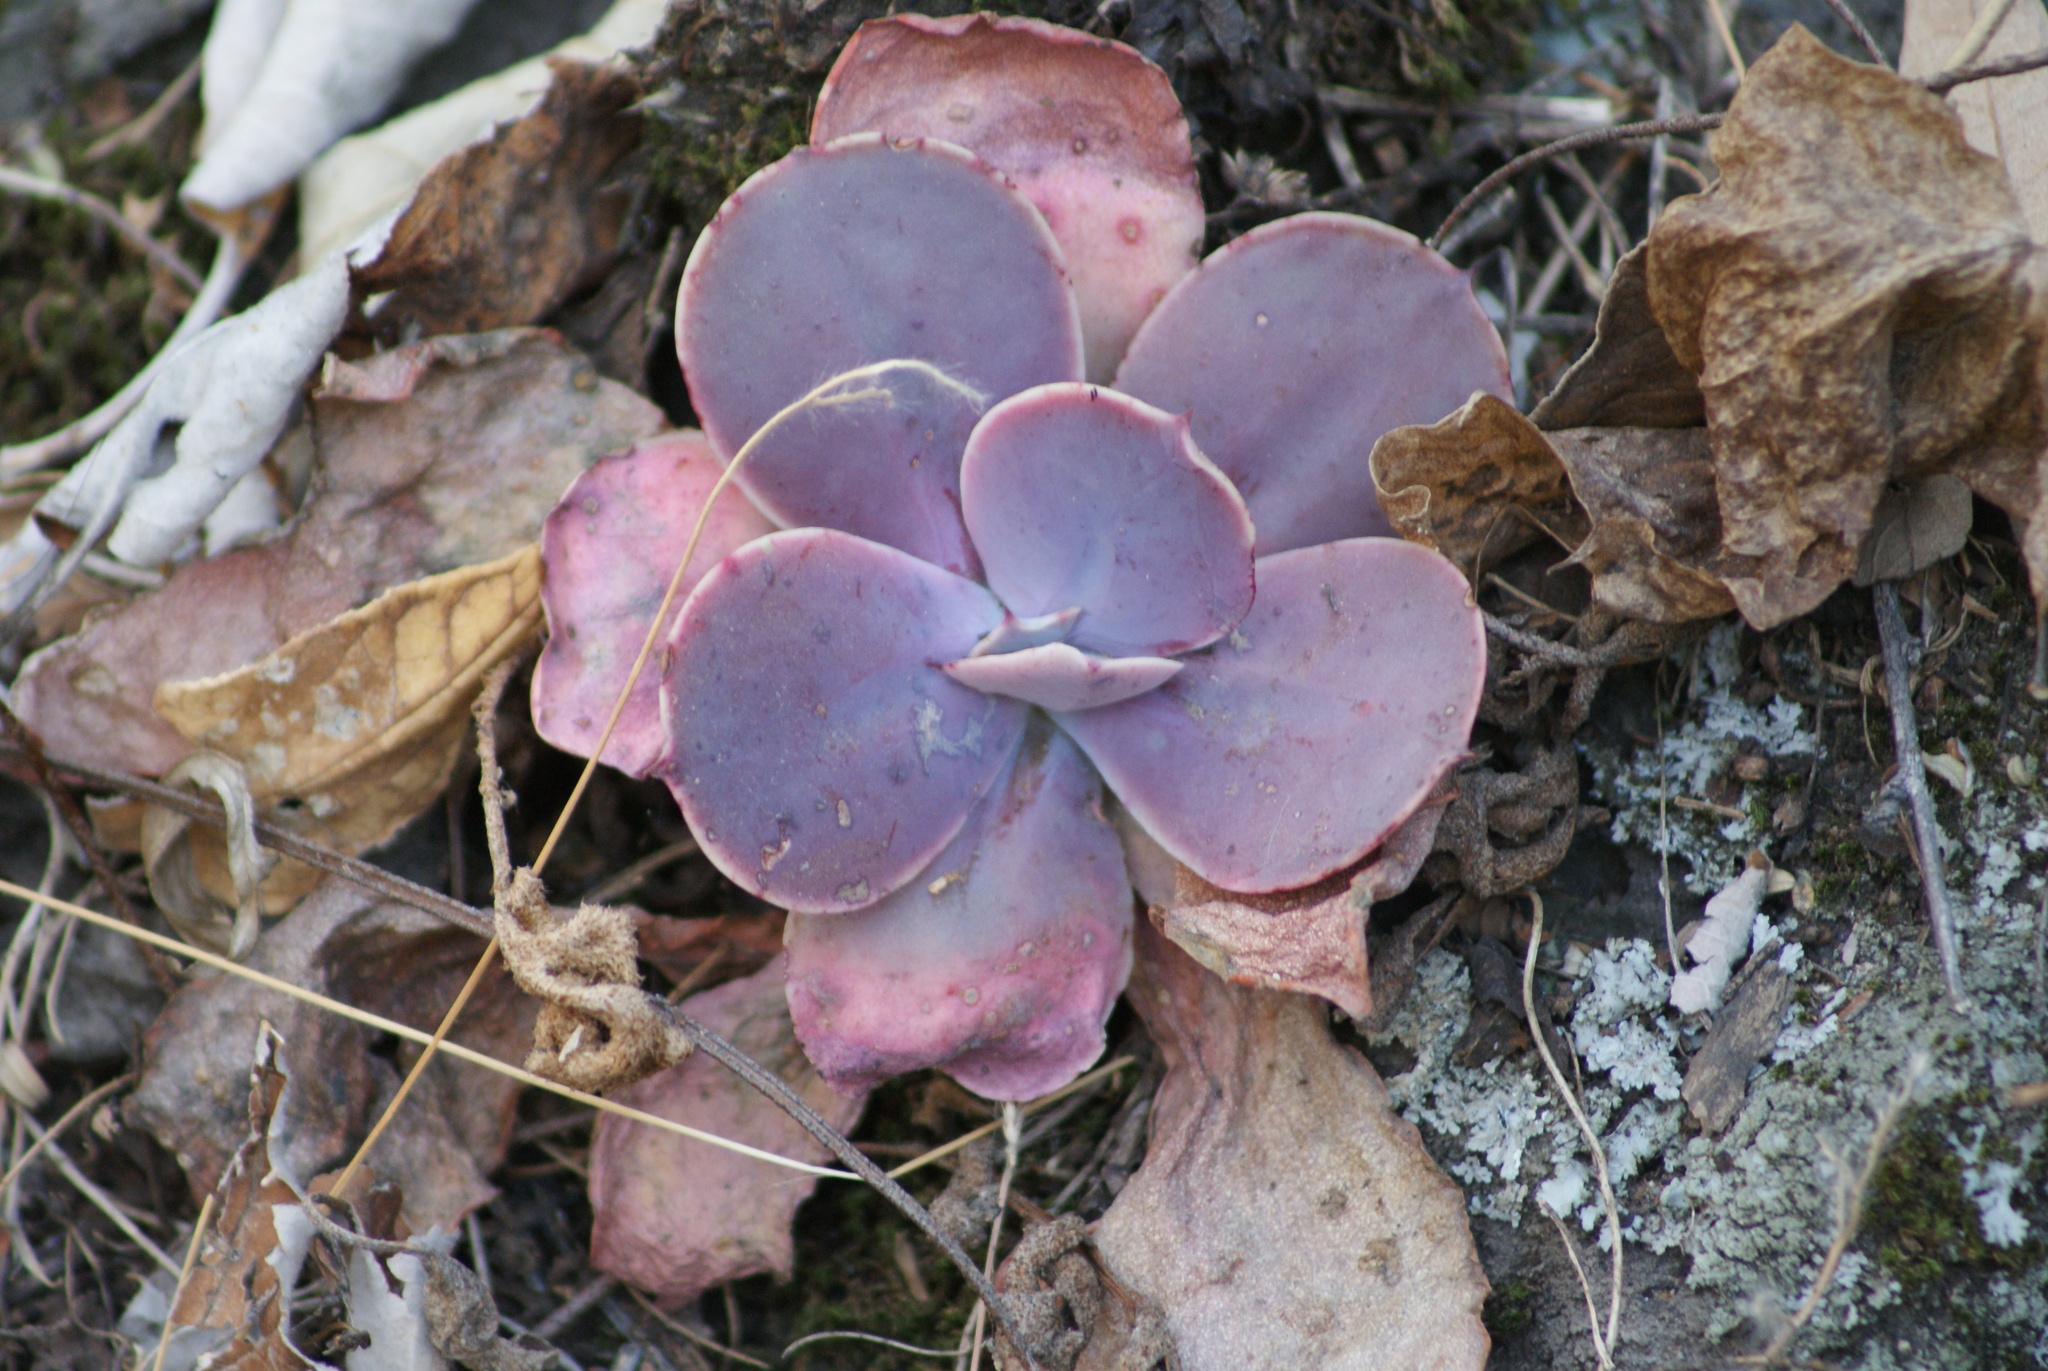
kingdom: Plantae
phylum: Tracheophyta
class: Magnoliopsida
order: Saxifragales
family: Crassulaceae
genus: Echeveria
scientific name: Echeveria gibbiflora
